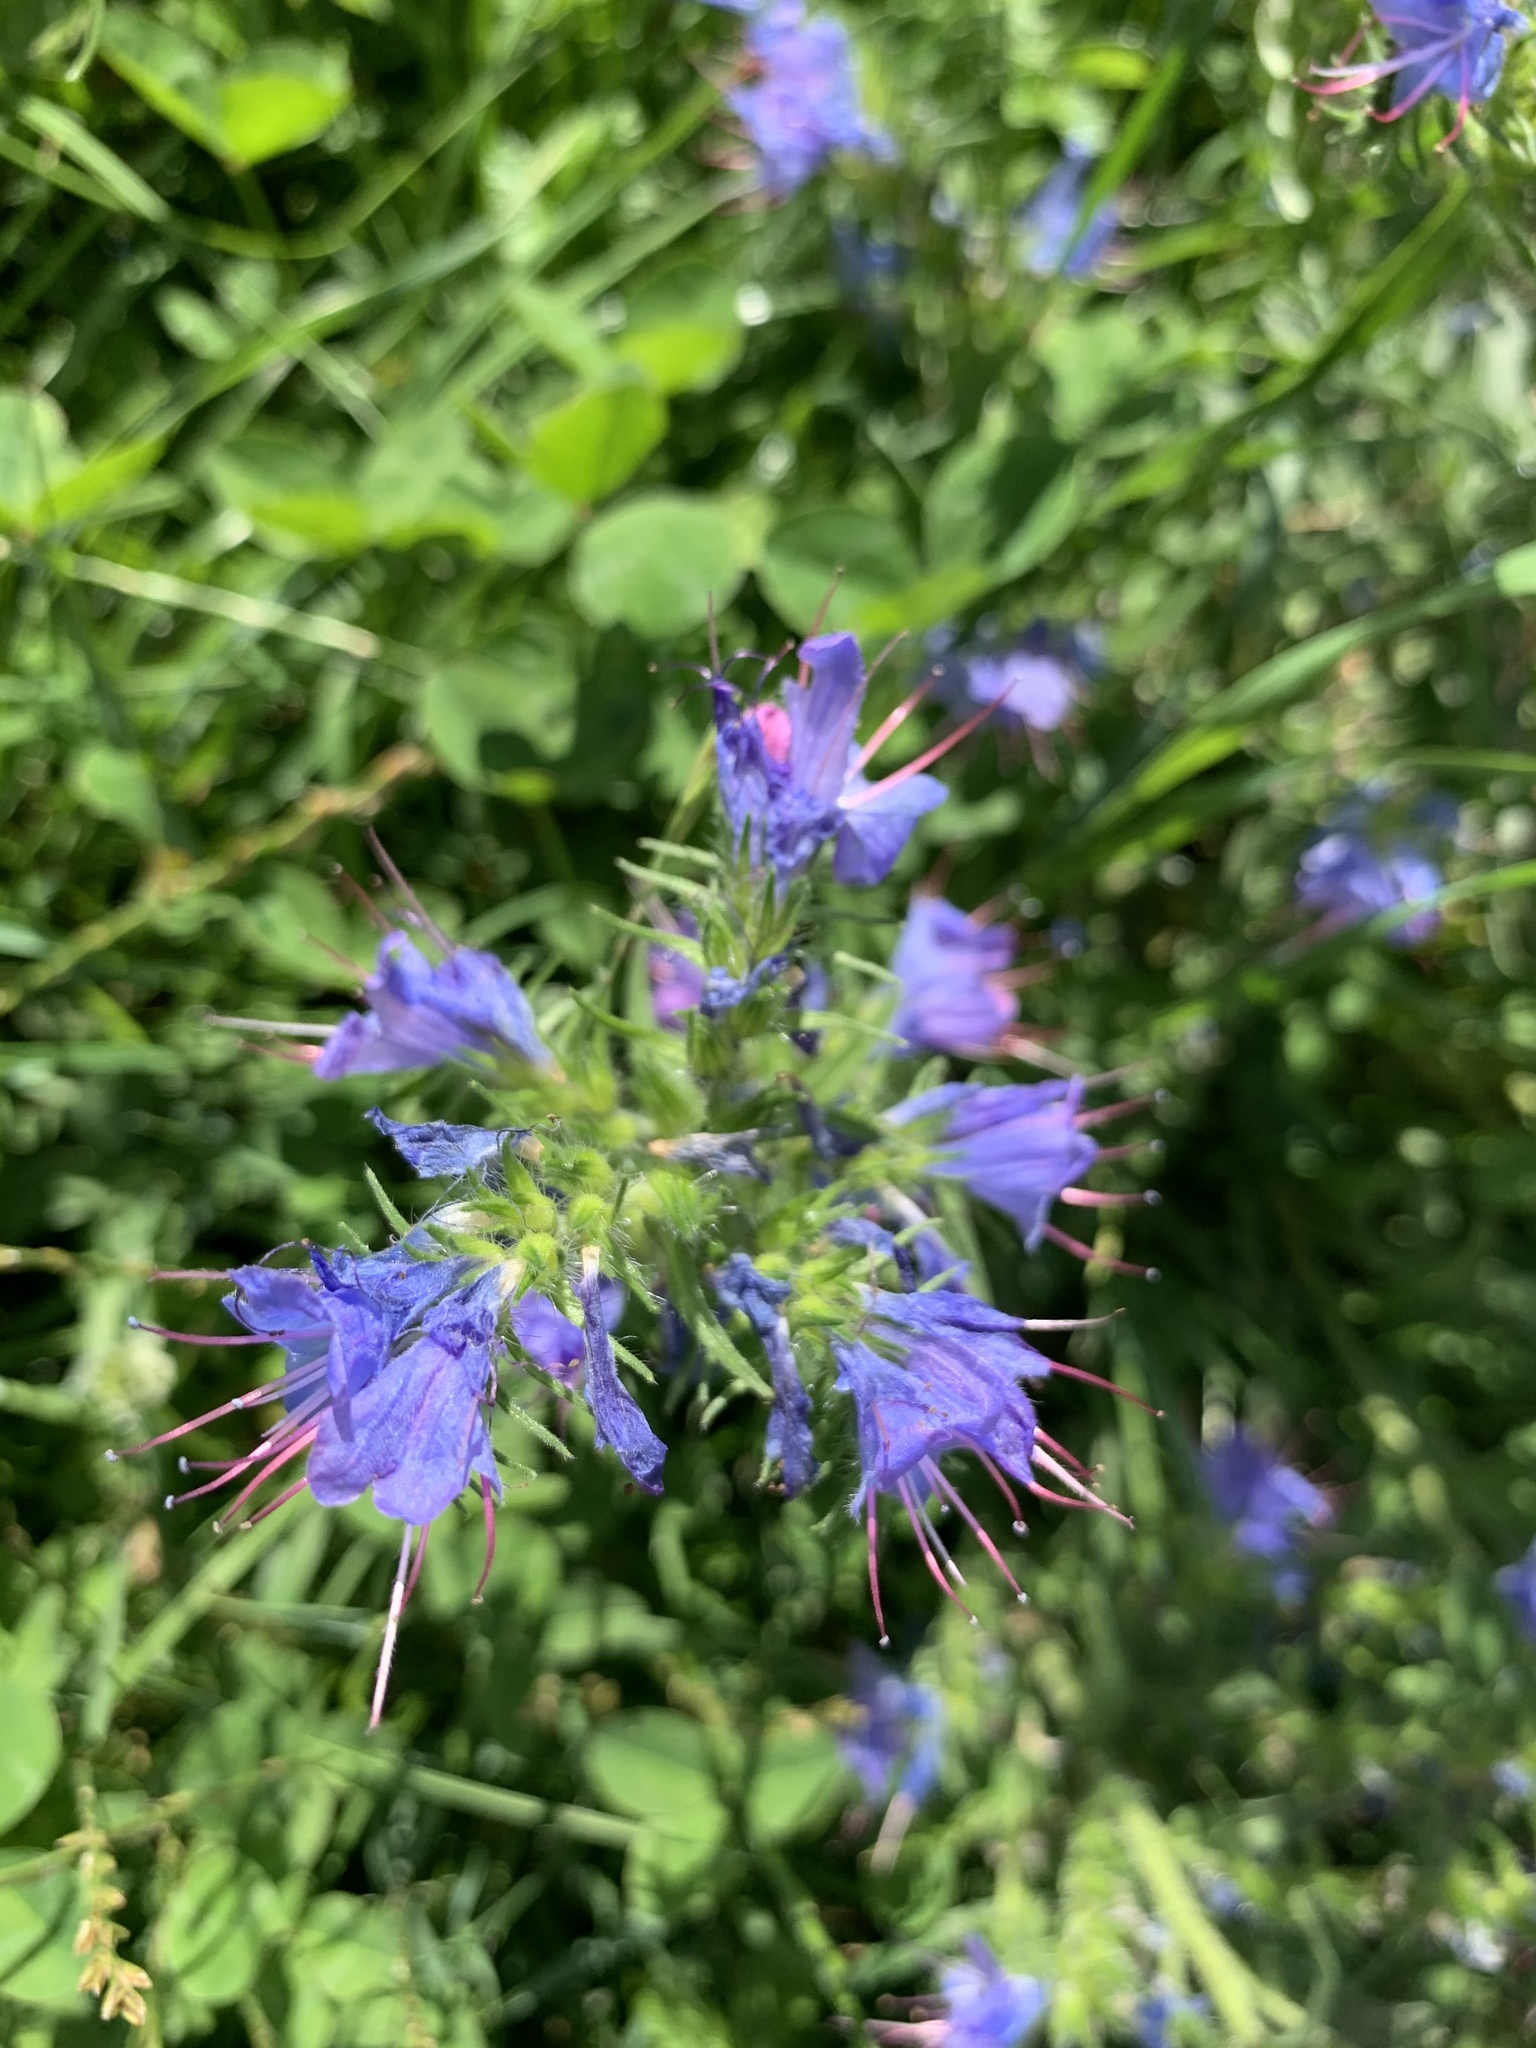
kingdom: Plantae
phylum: Tracheophyta
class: Magnoliopsida
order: Boraginales
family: Boraginaceae
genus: Echium
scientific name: Echium vulgare
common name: Common viper's bugloss
